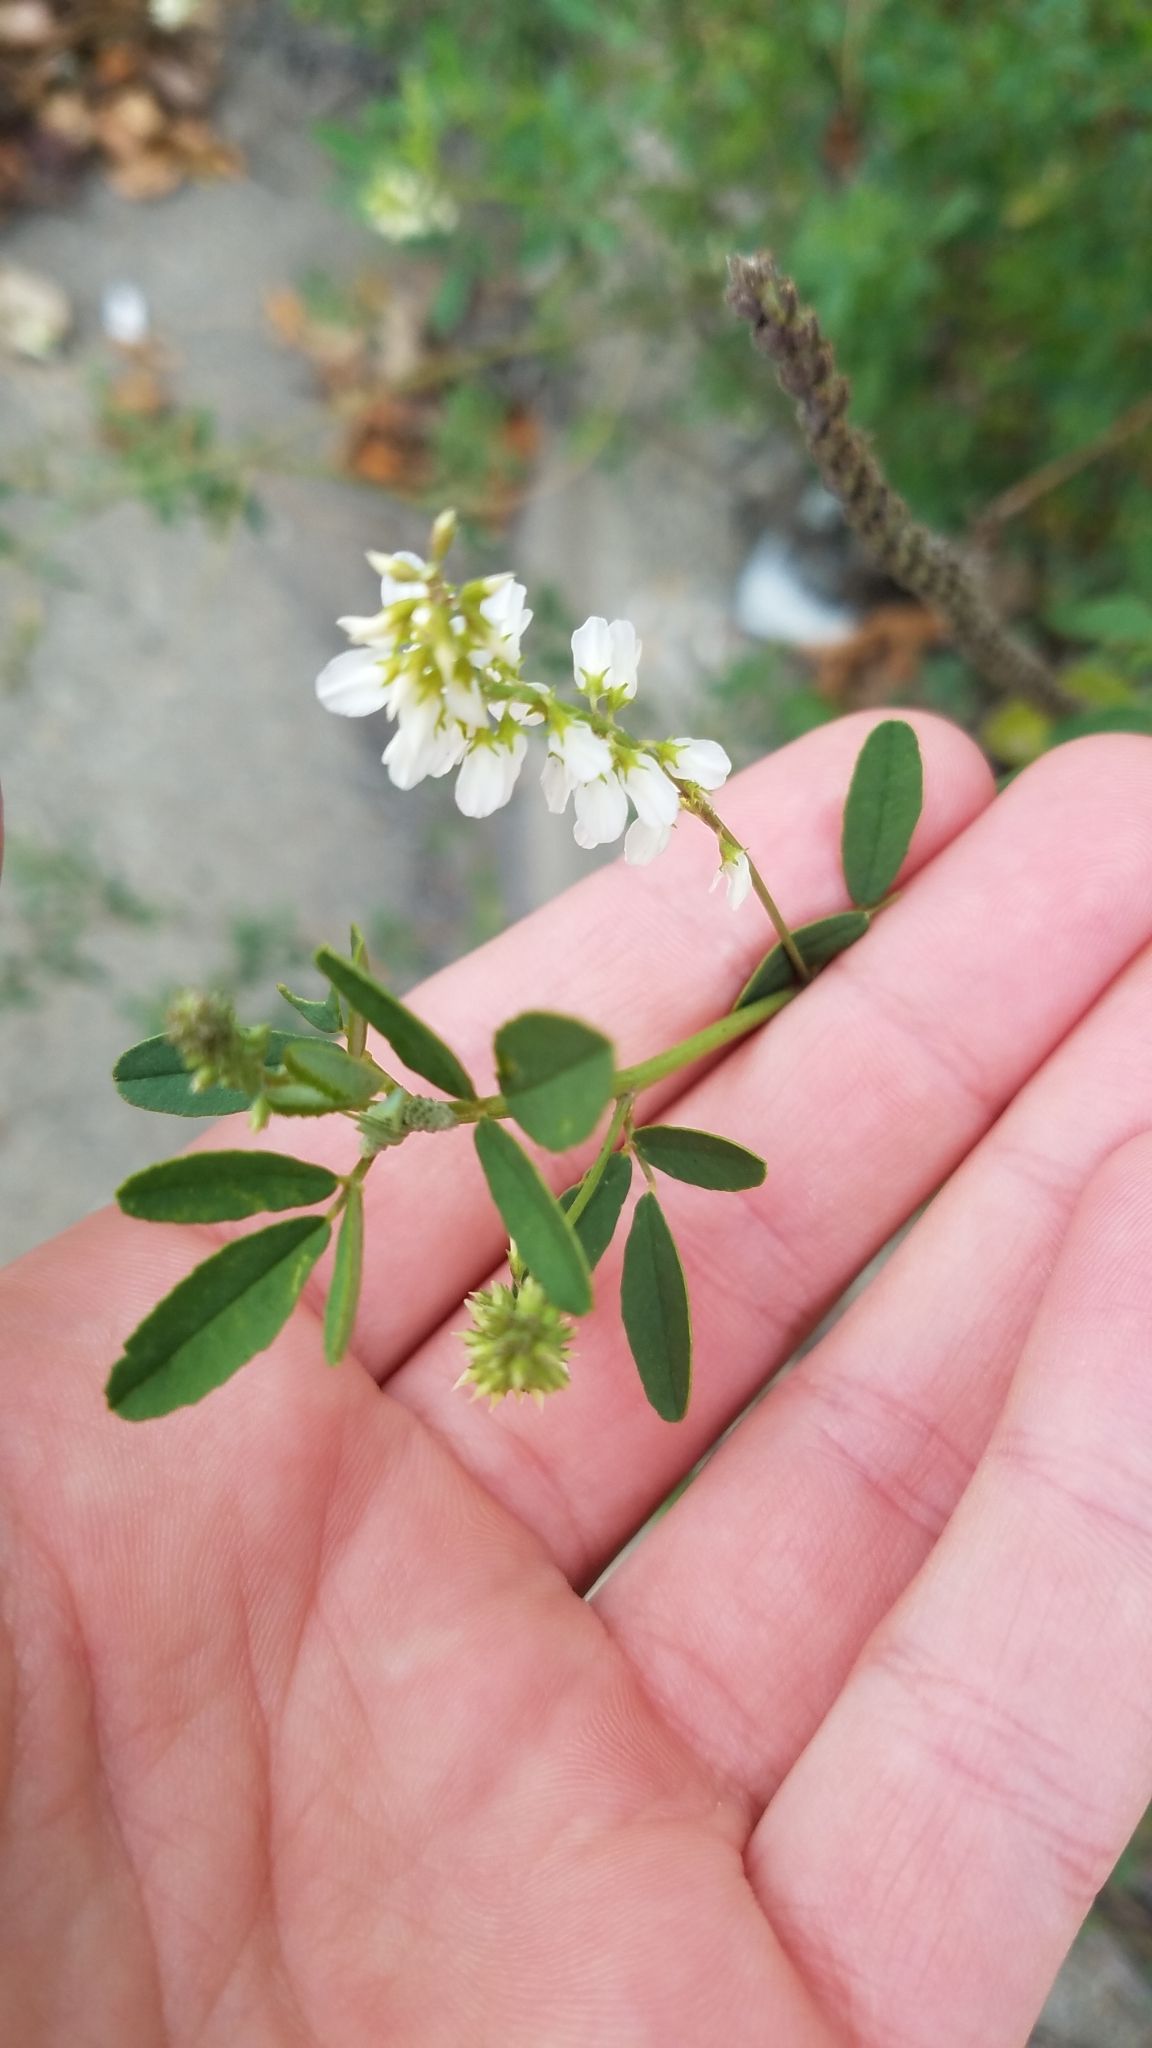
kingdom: Plantae
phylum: Tracheophyta
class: Magnoliopsida
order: Fabales
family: Fabaceae
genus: Melilotus
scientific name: Melilotus albus
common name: White melilot
